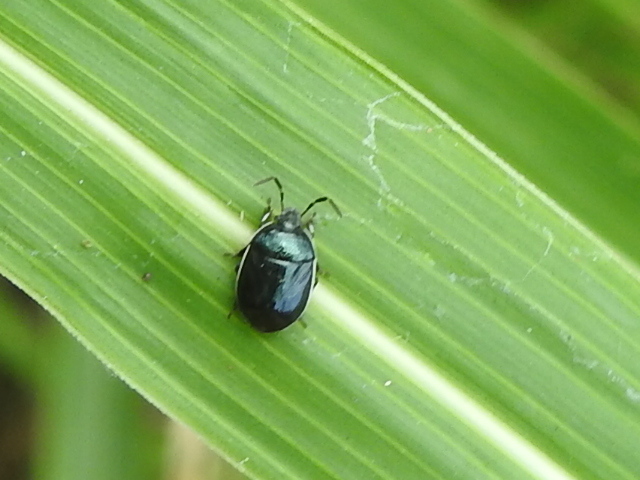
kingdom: Animalia
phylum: Arthropoda
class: Insecta
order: Hemiptera
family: Cydnidae
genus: Sehirus
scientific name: Sehirus cinctus
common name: White-margined burrower bug
